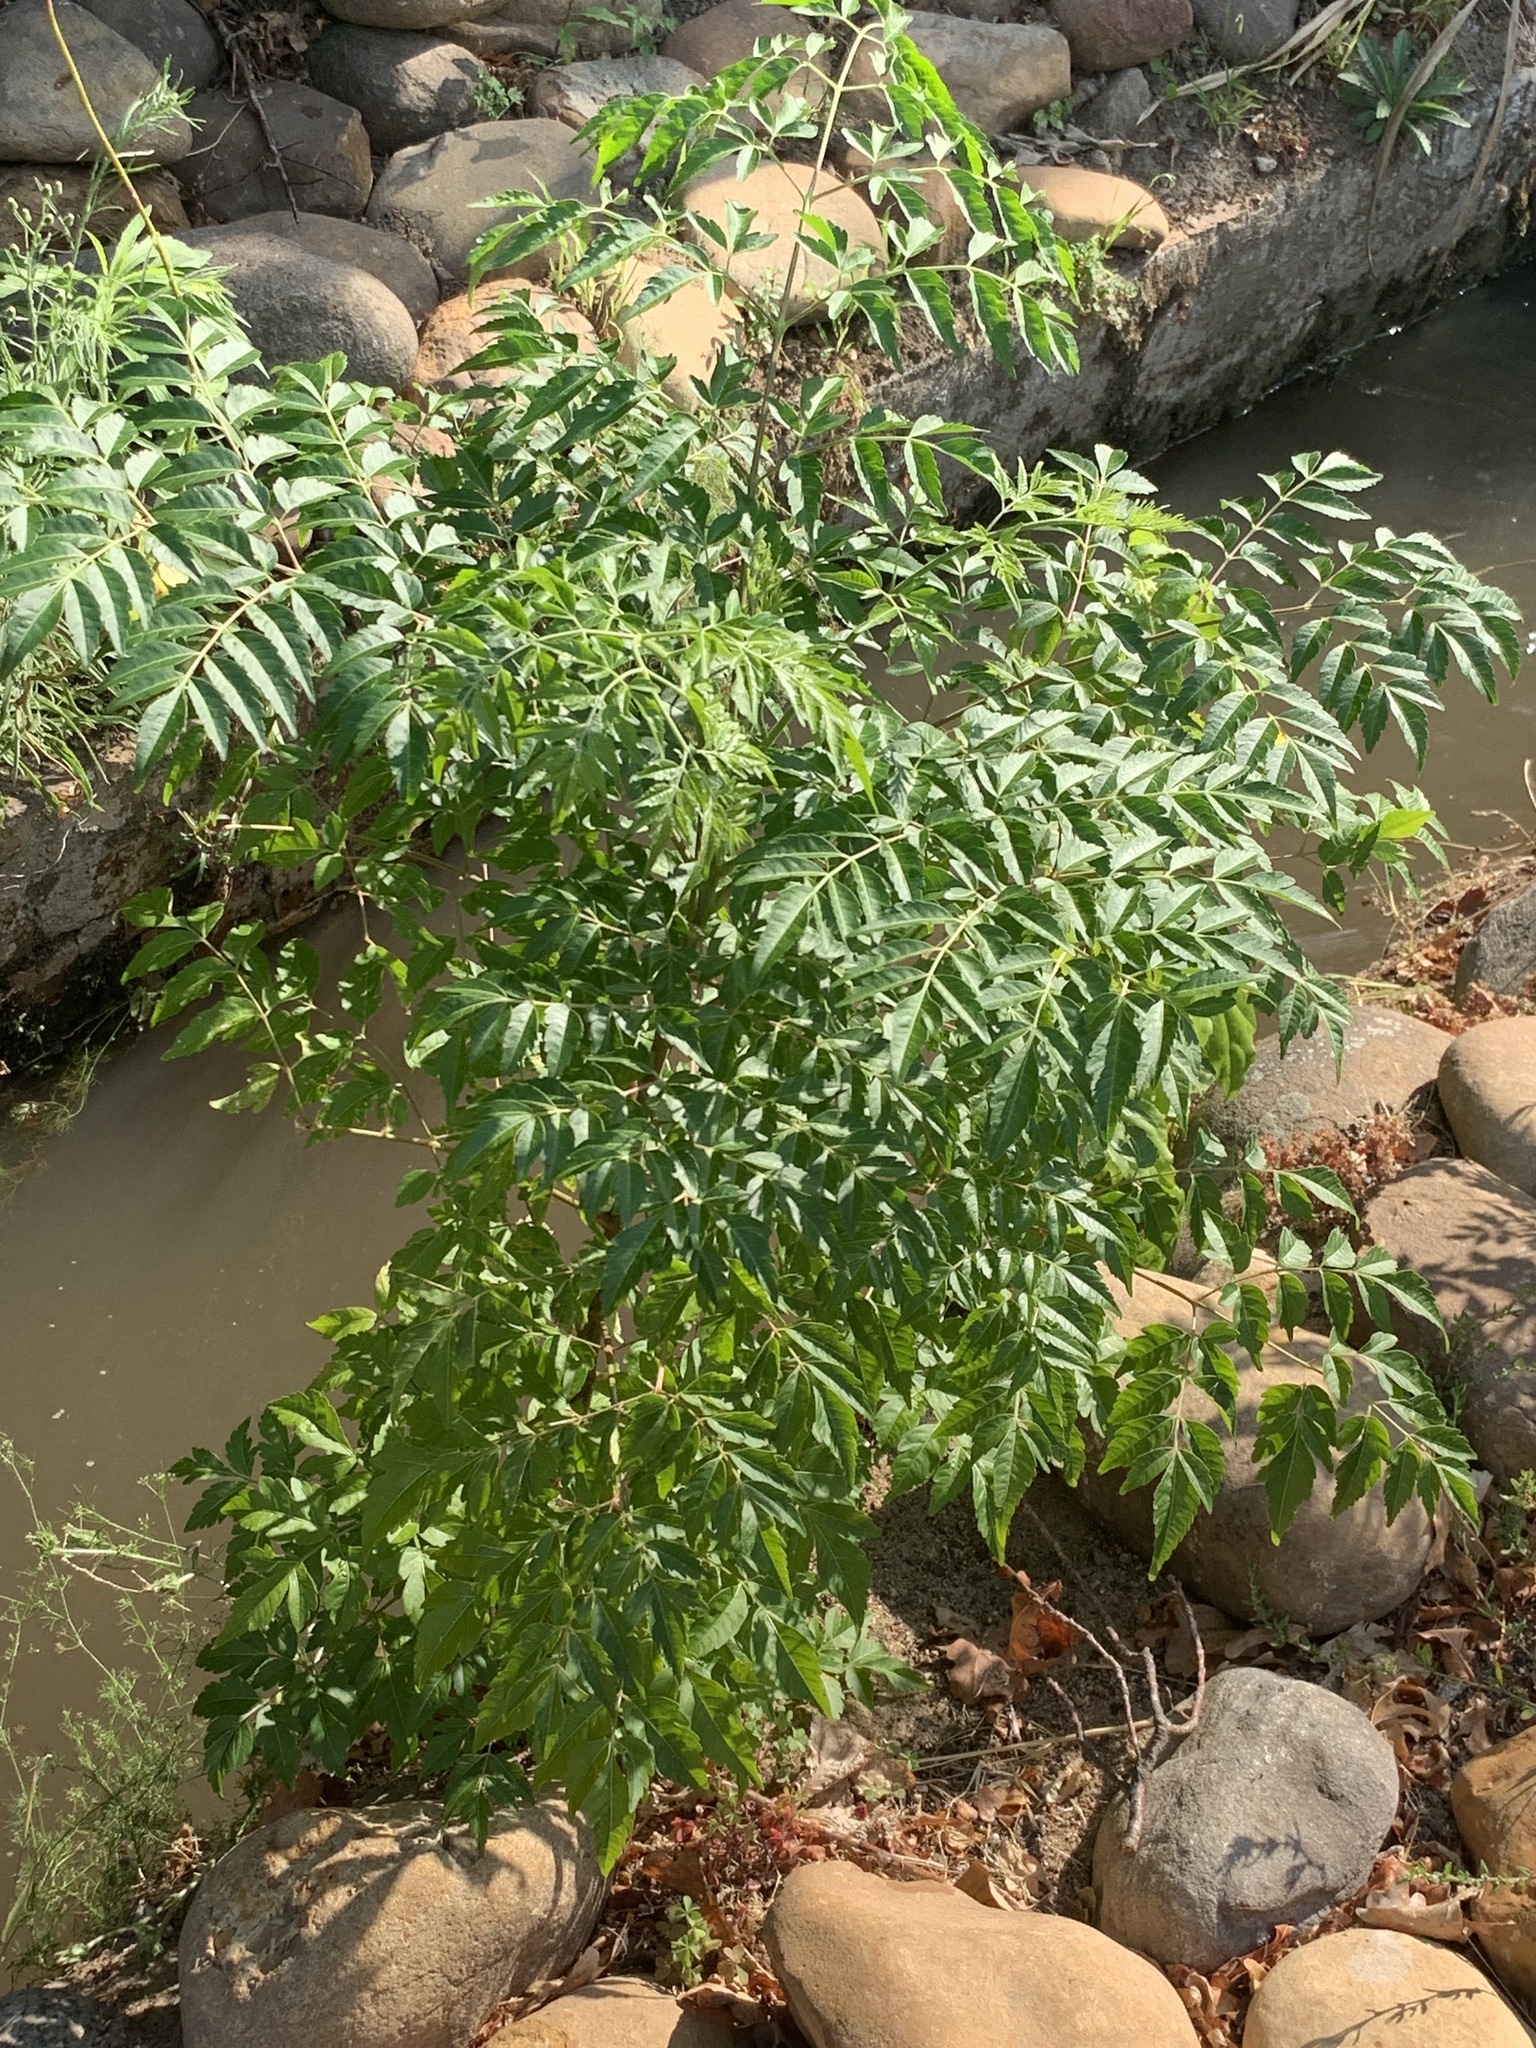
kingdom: Plantae
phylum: Tracheophyta
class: Magnoliopsida
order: Sapindales
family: Meliaceae
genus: Melia
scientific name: Melia azedarach
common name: Chinaberrytree
